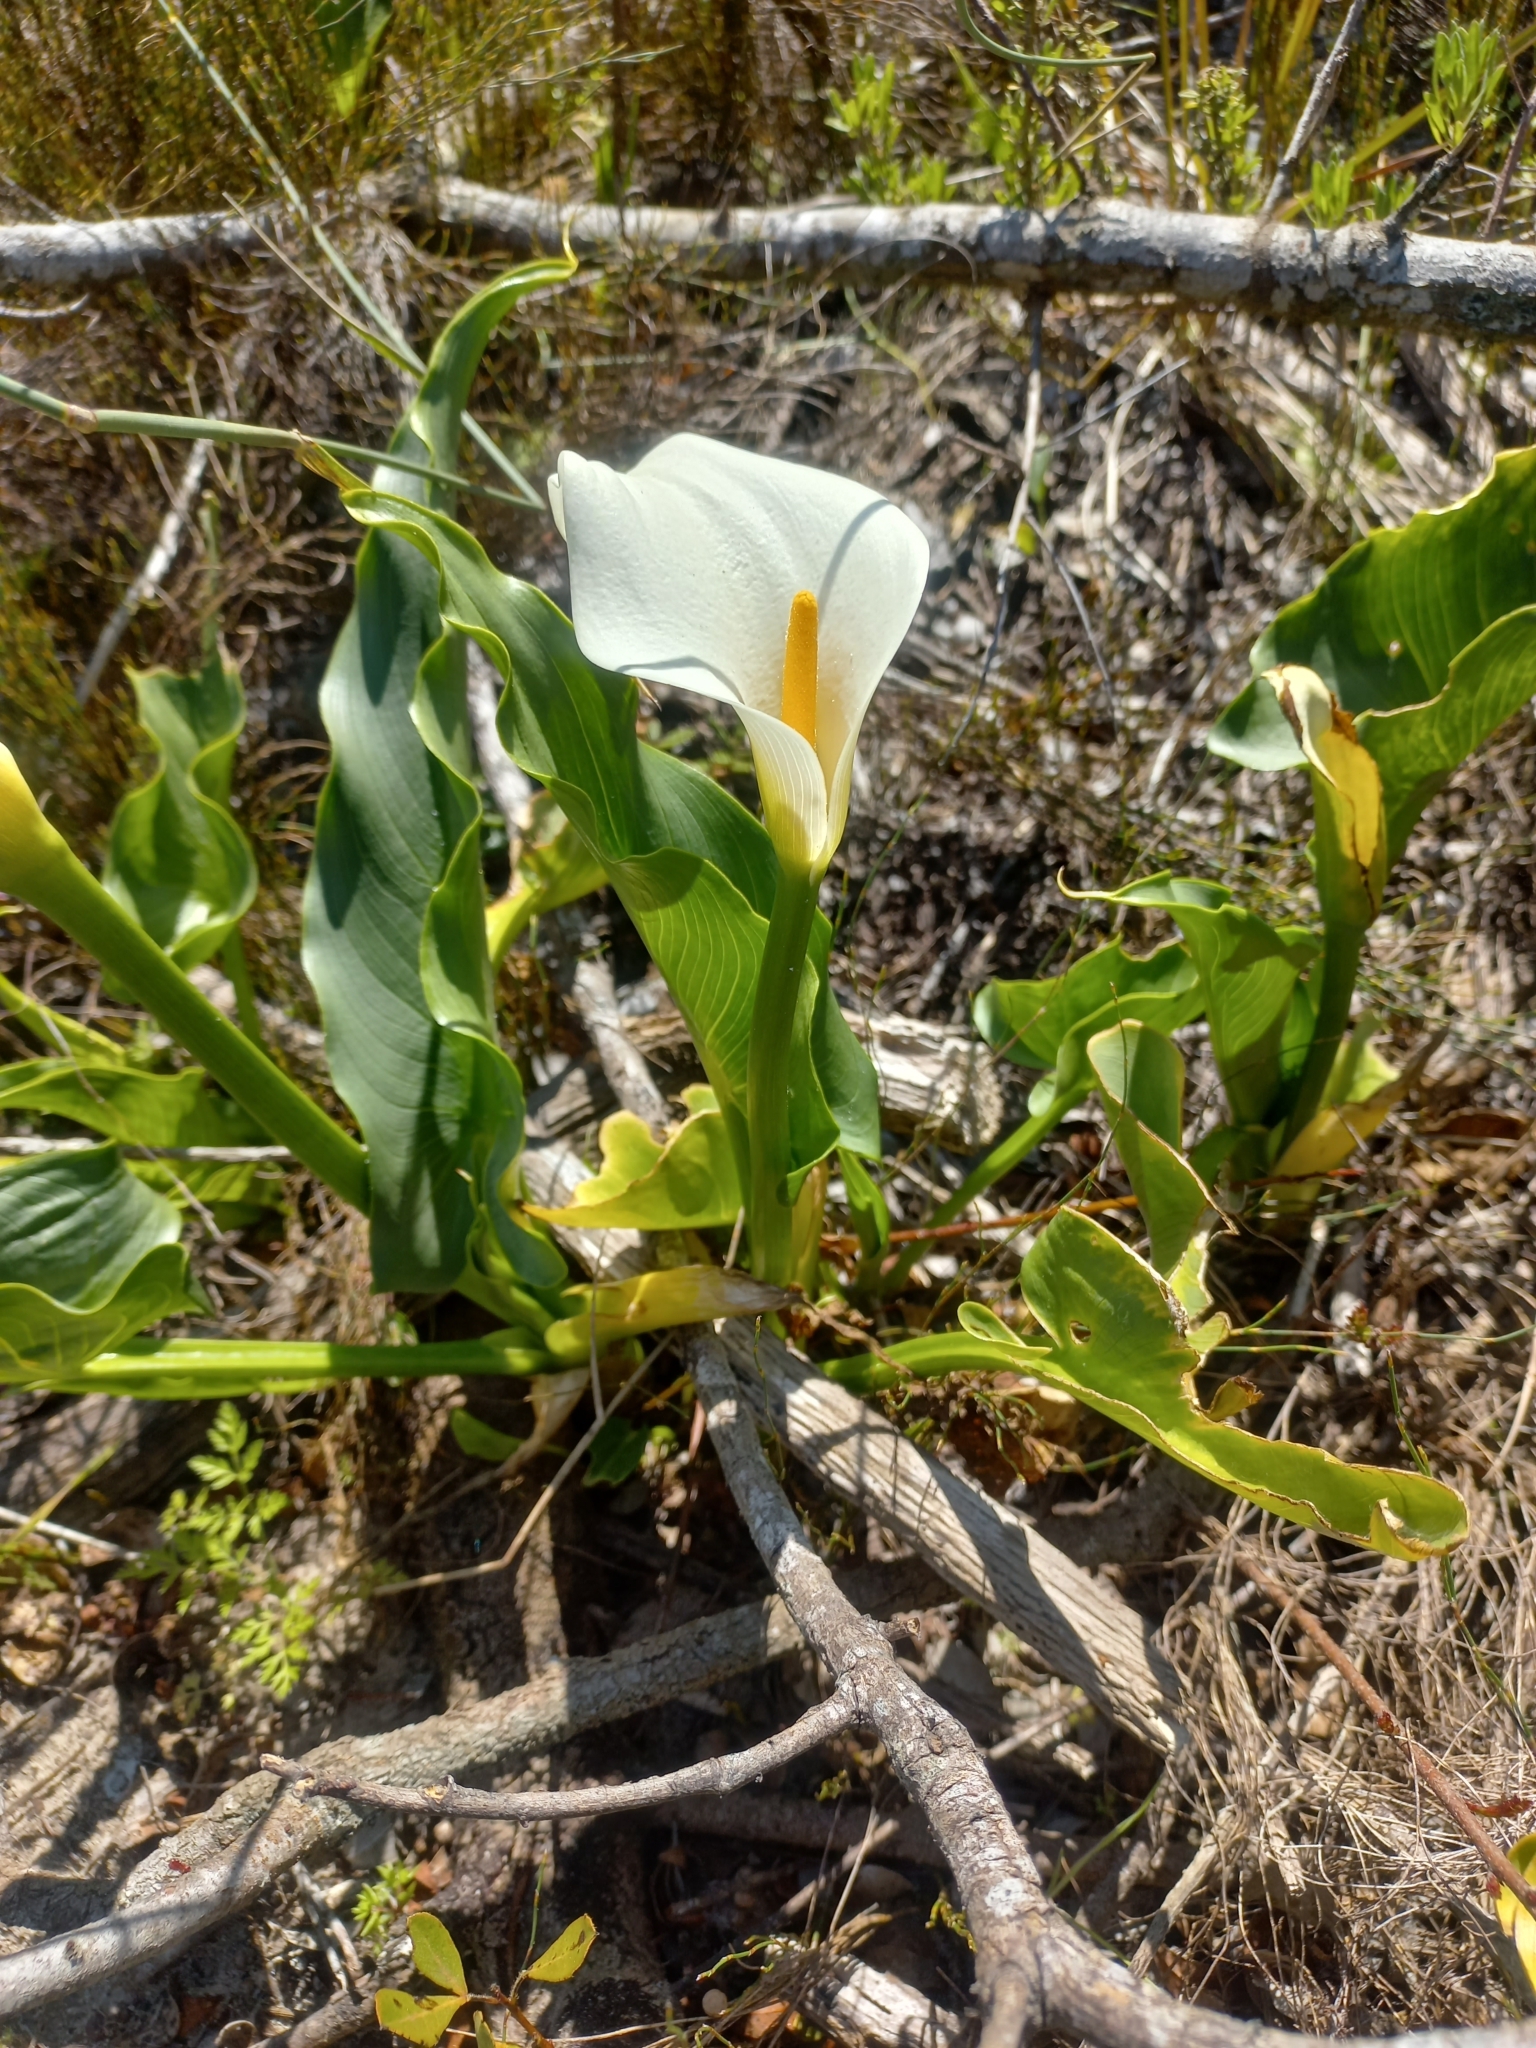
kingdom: Plantae
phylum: Tracheophyta
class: Liliopsida
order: Alismatales
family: Araceae
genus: Zantedeschia
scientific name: Zantedeschia aethiopica
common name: Altar-lily
